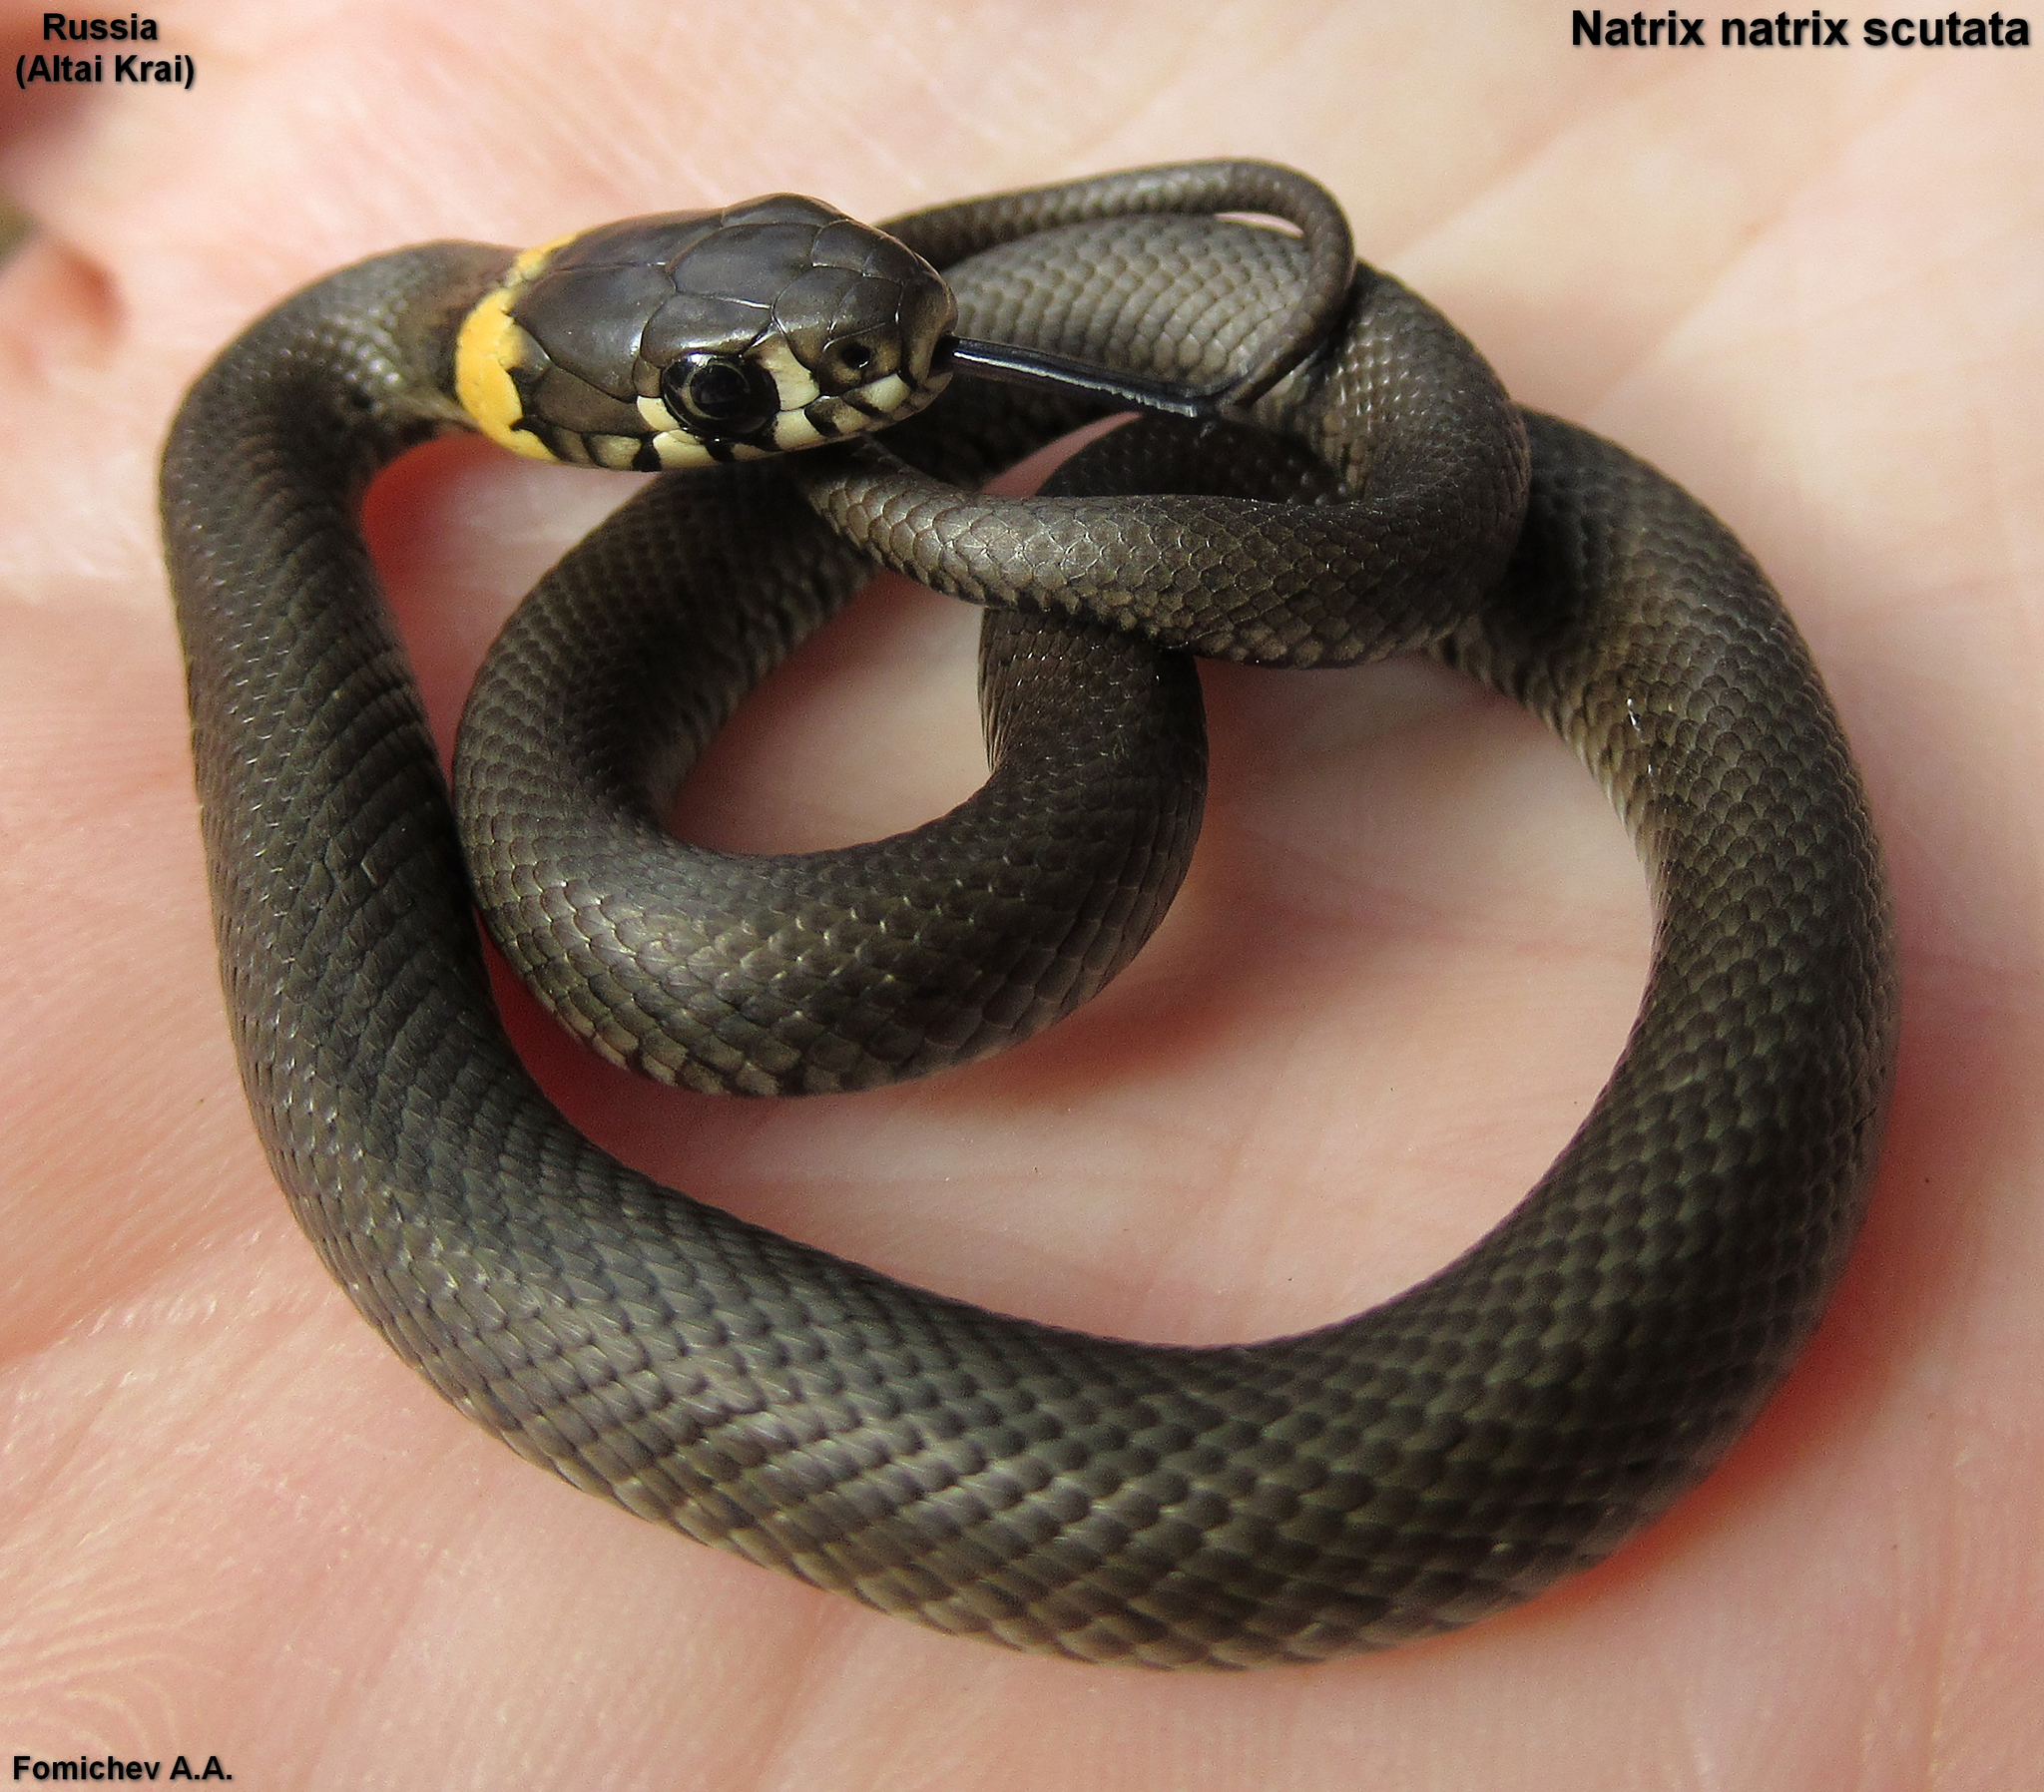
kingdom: Animalia
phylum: Chordata
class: Squamata
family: Colubridae
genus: Natrix
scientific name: Natrix natrix
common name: Grass snake
